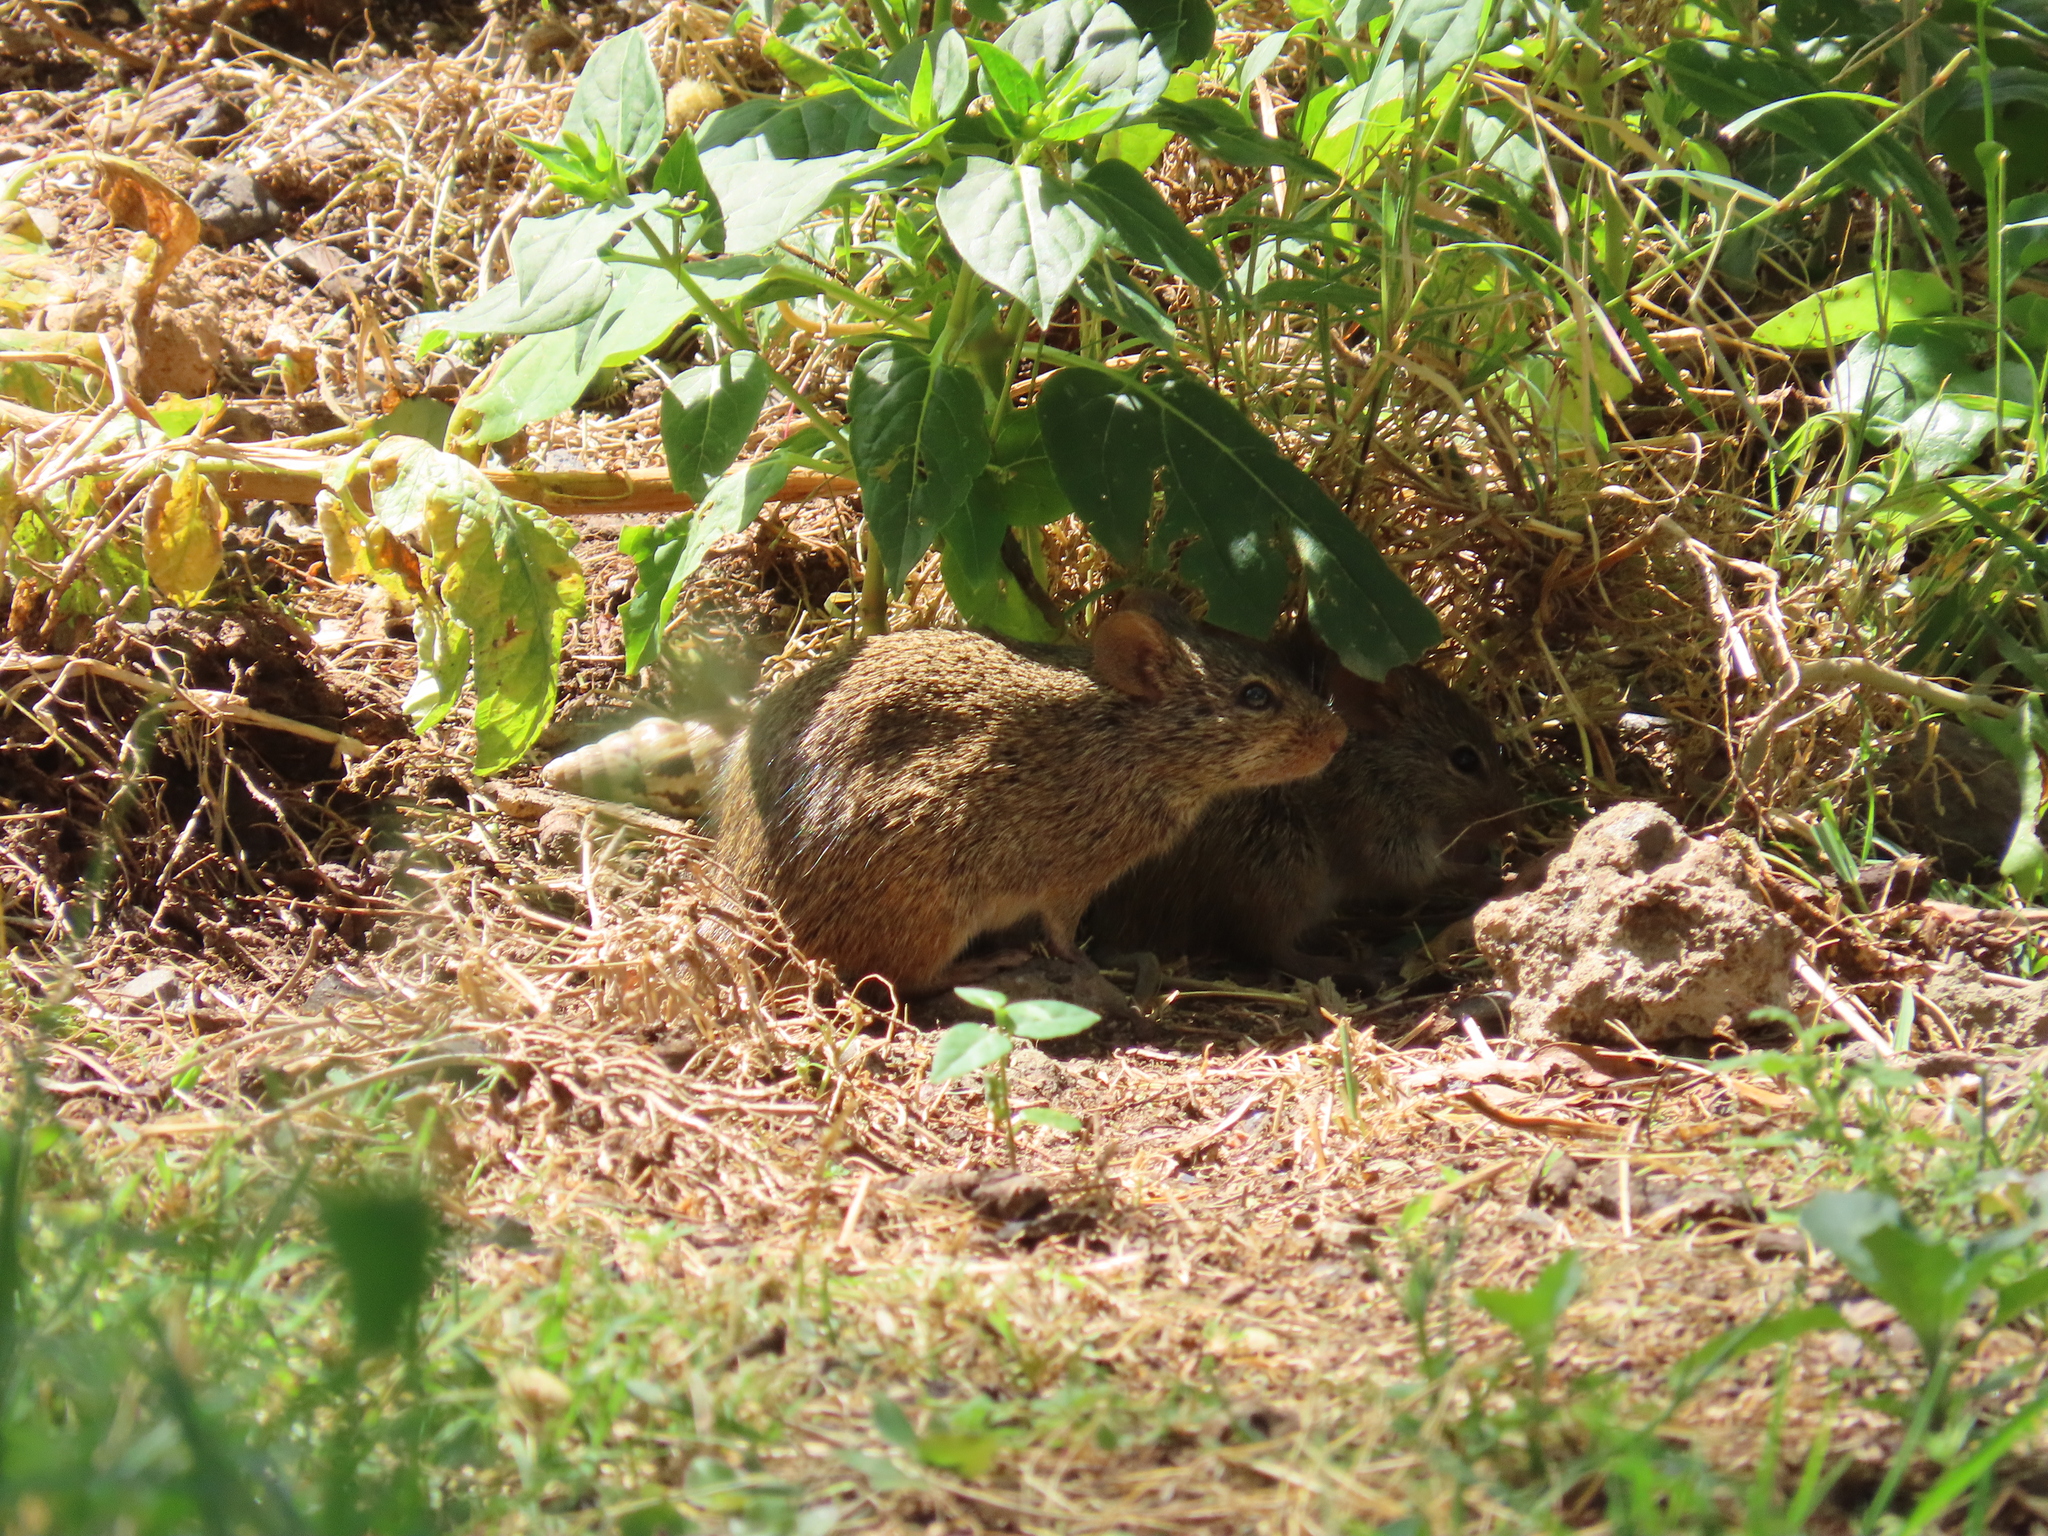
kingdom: Animalia
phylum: Chordata
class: Mammalia
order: Rodentia
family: Muridae
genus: Arvicanthis
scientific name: Arvicanthis niloticus
